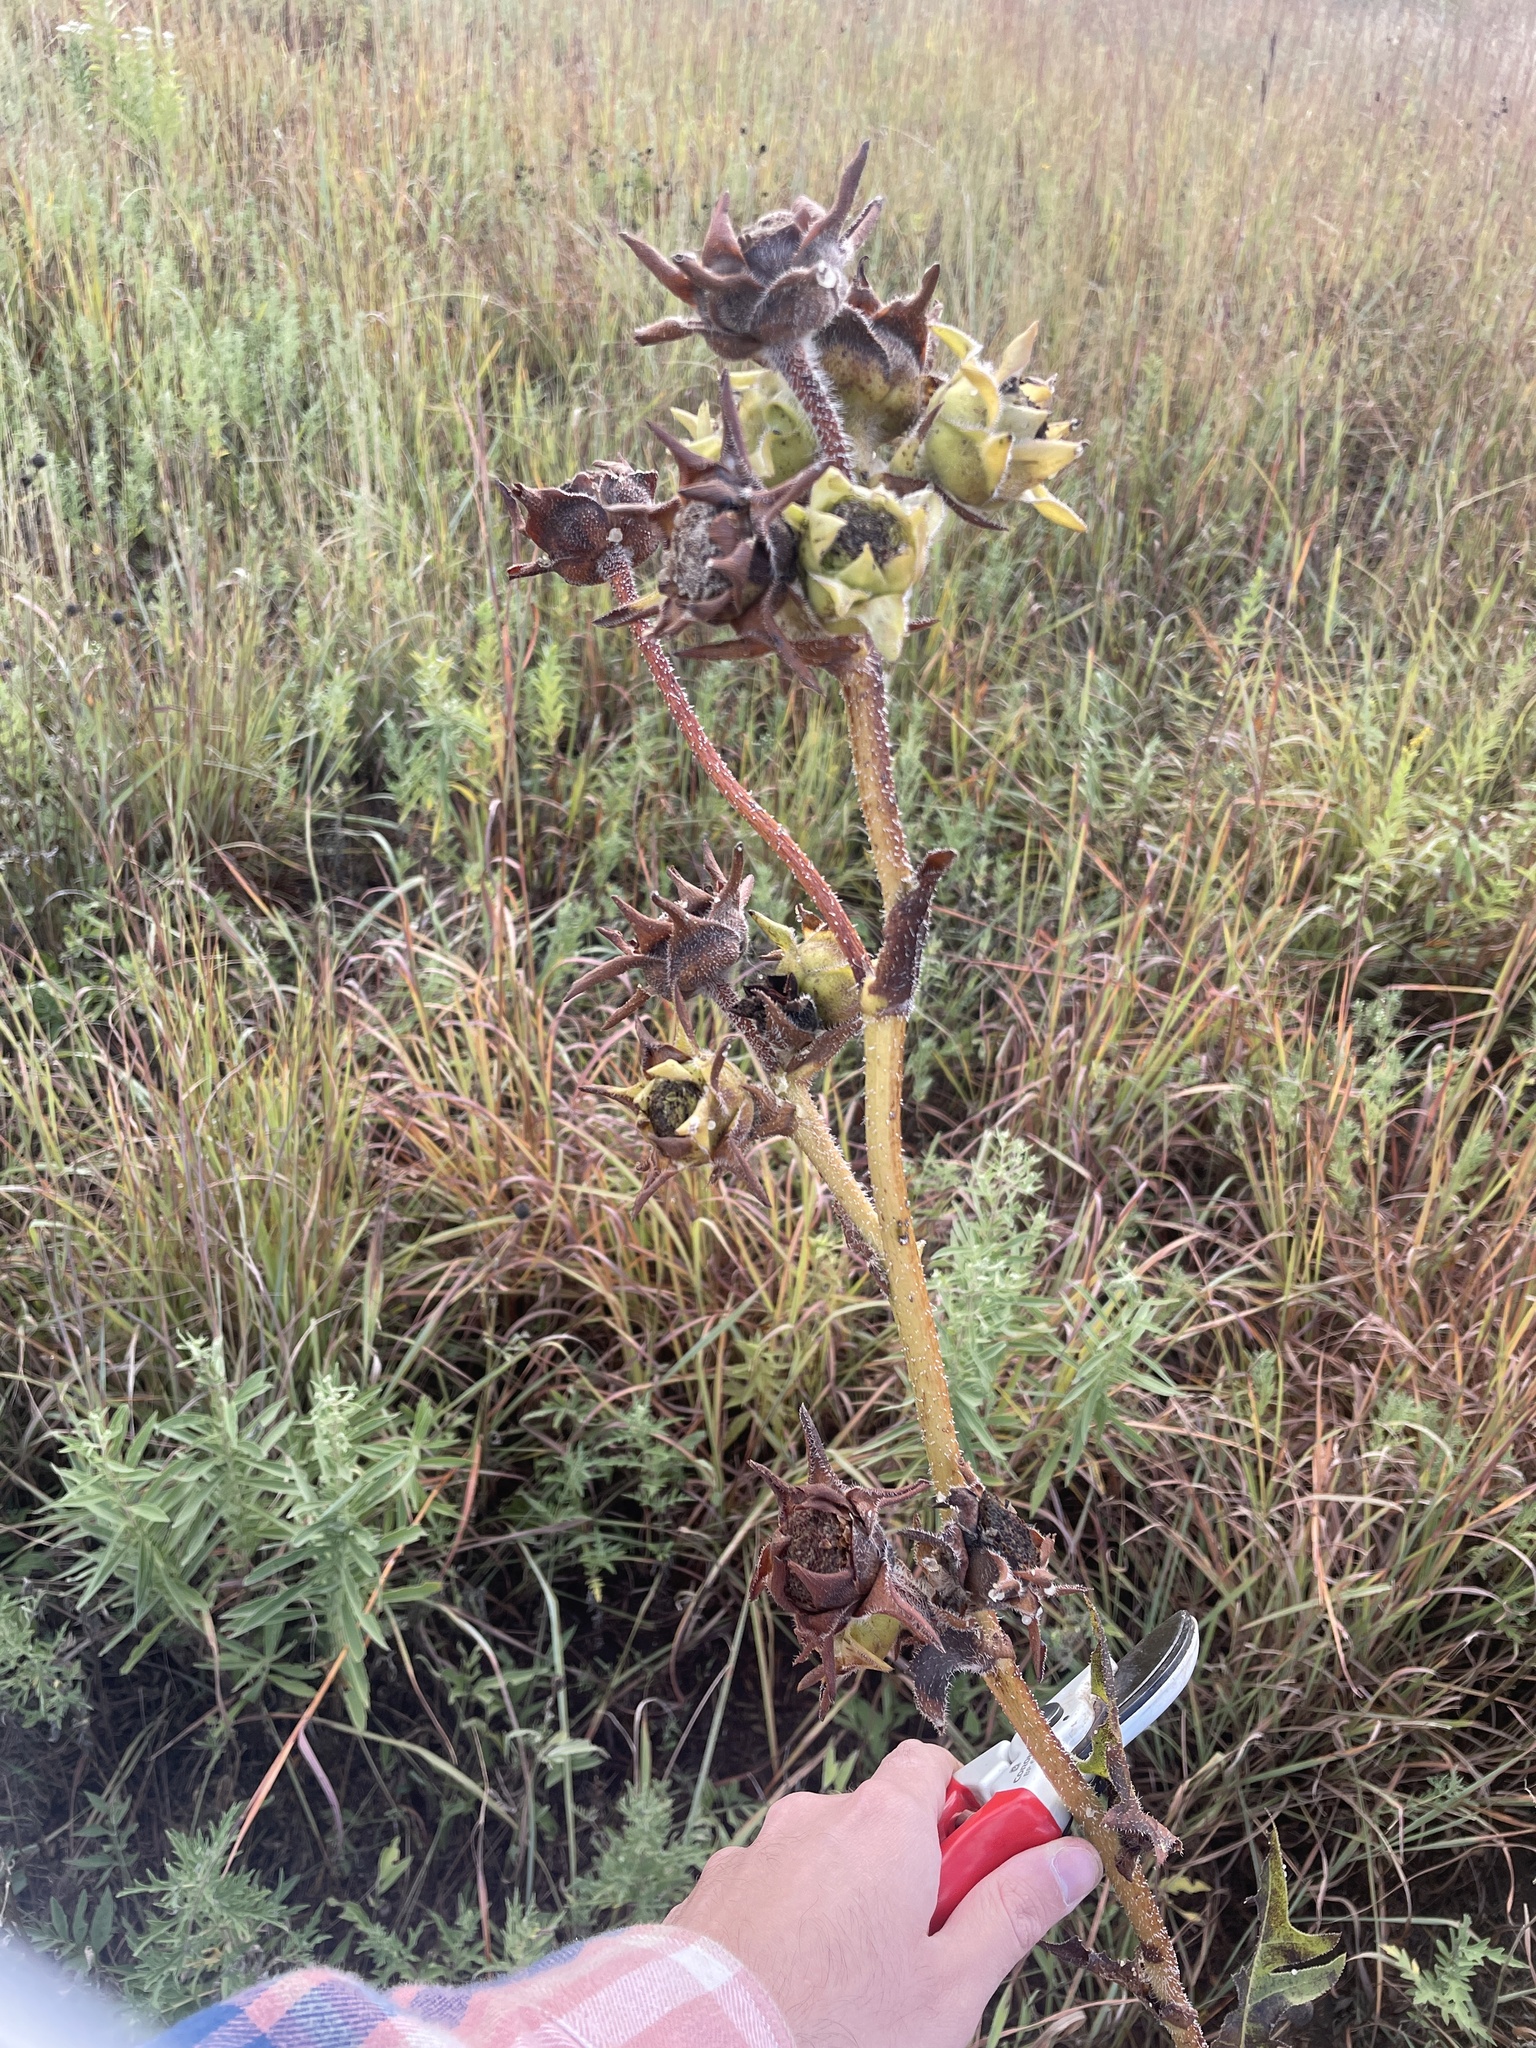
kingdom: Plantae
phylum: Tracheophyta
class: Magnoliopsida
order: Asterales
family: Asteraceae
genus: Silphium
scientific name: Silphium laciniatum
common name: Polarplant
